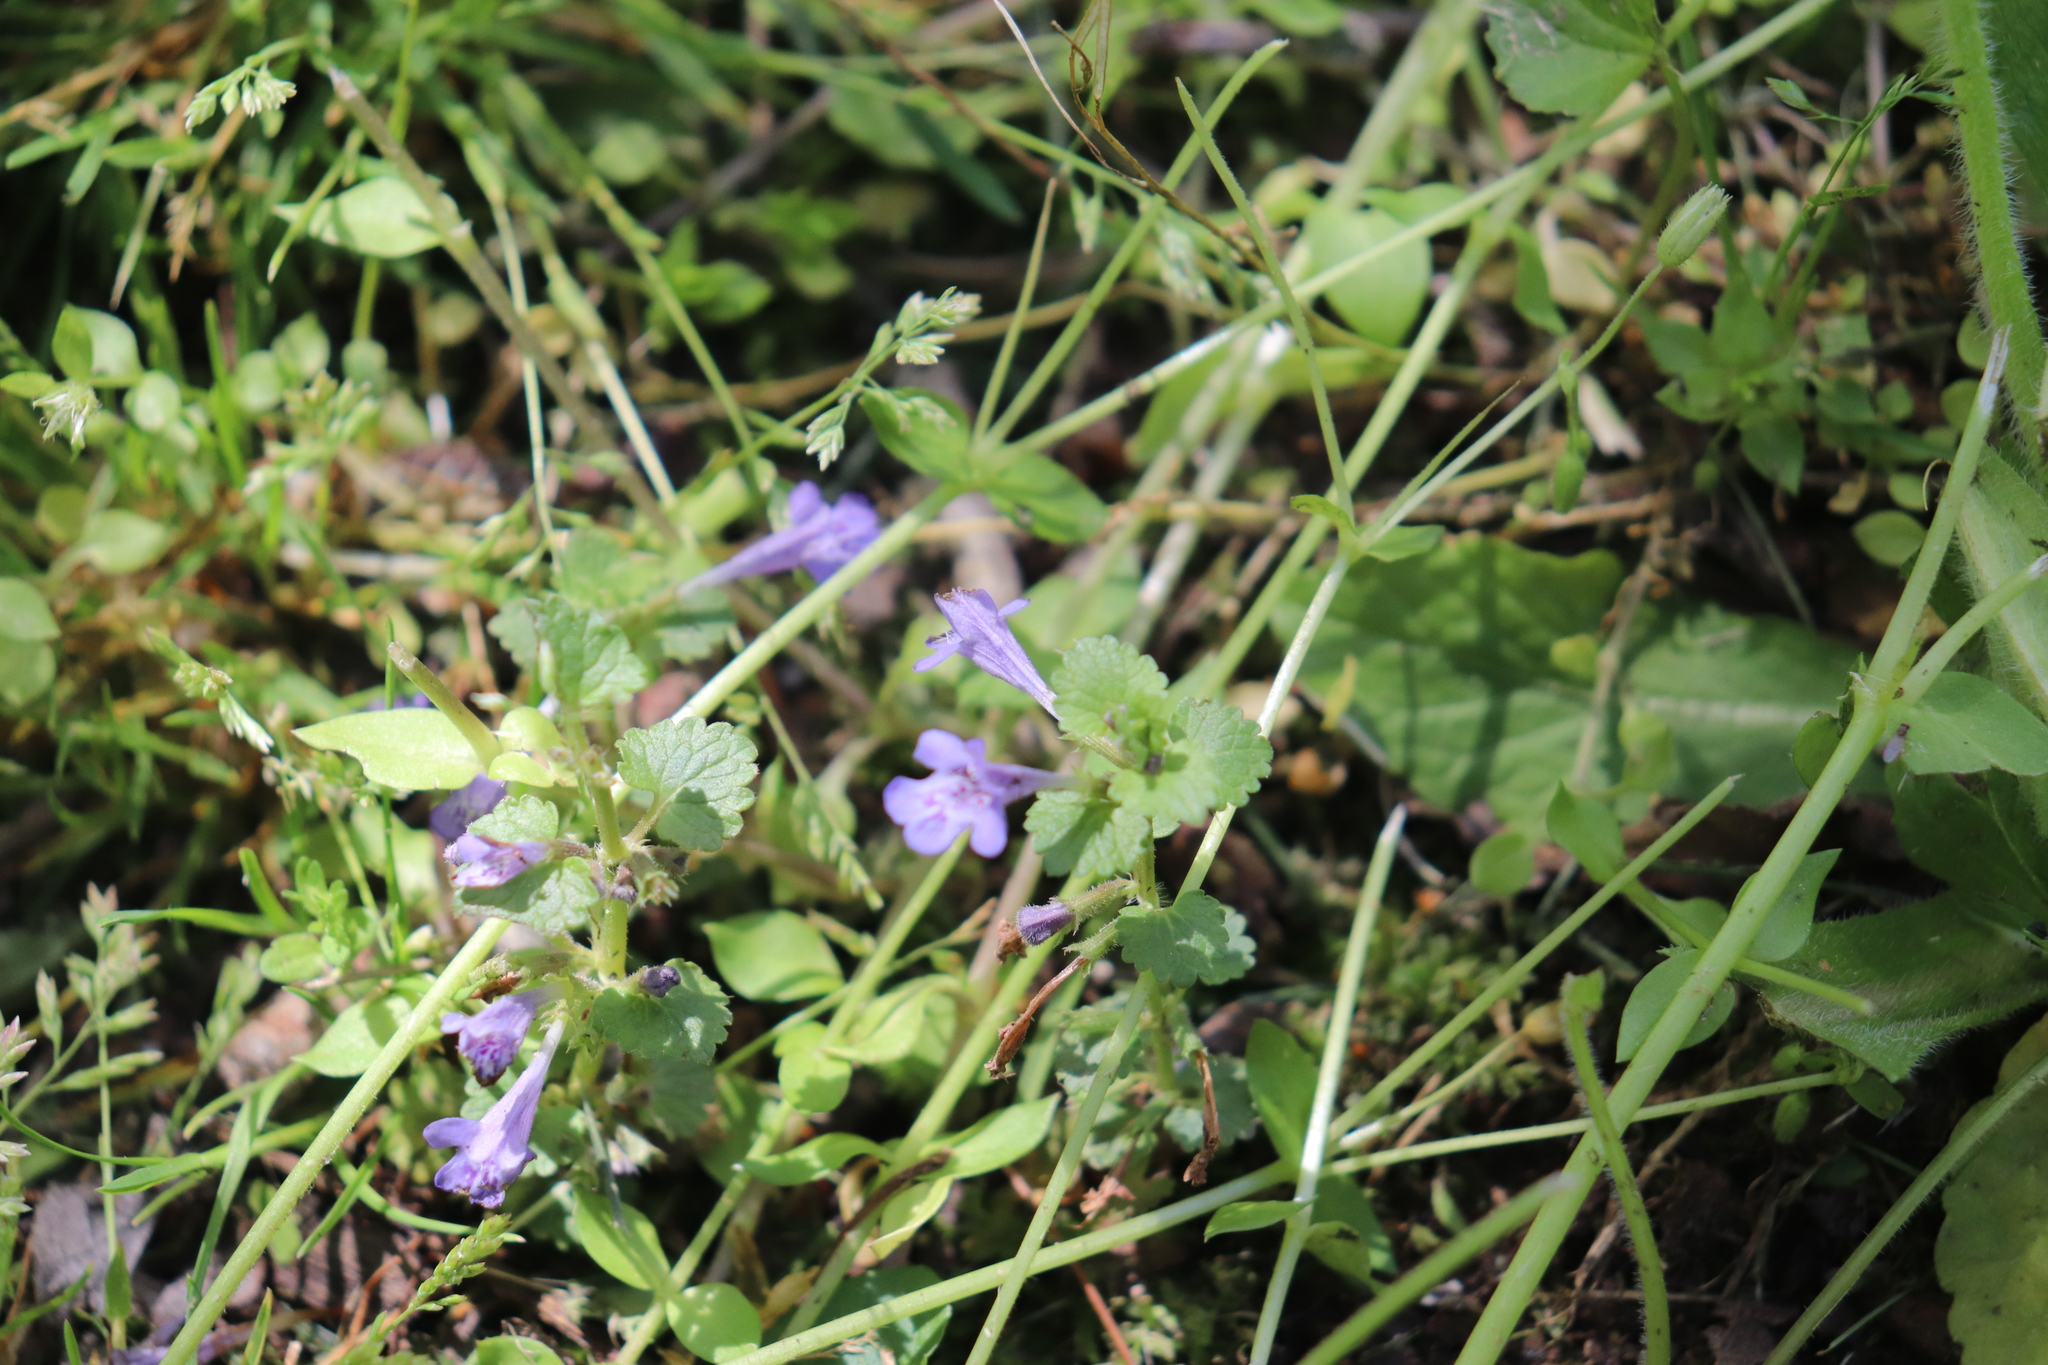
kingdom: Plantae
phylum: Tracheophyta
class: Magnoliopsida
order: Lamiales
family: Lamiaceae
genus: Glechoma
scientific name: Glechoma hederacea
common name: Ground ivy
